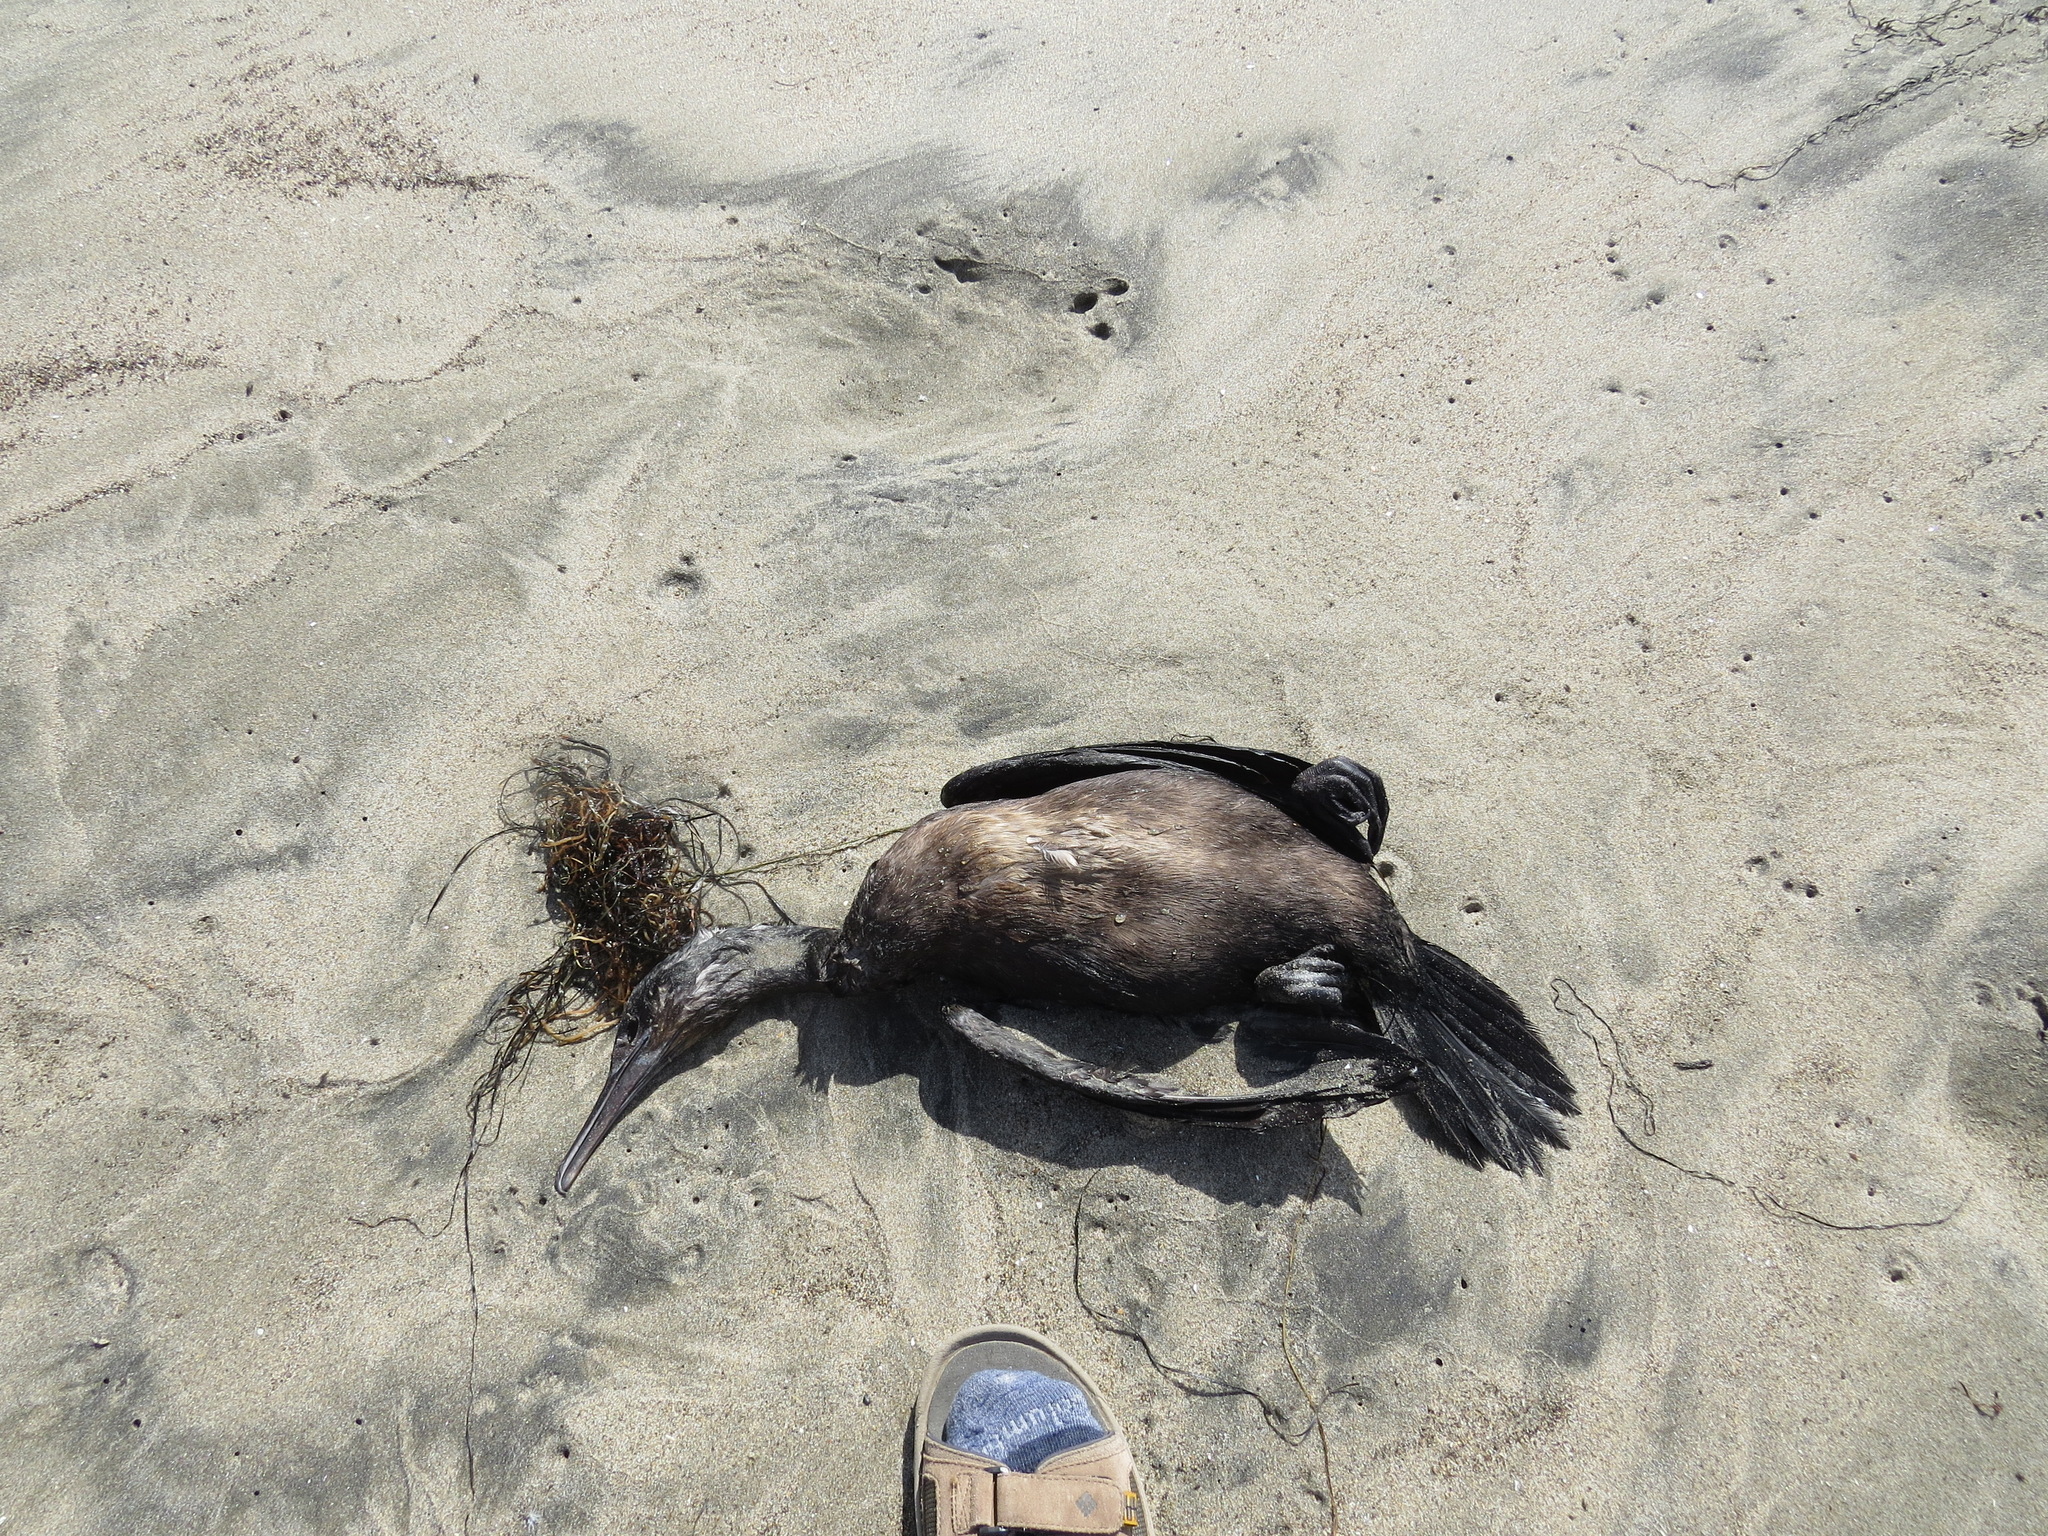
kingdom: Animalia
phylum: Chordata
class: Aves
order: Suliformes
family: Phalacrocoracidae
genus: Urile
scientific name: Urile penicillatus
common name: Brandt's cormorant
